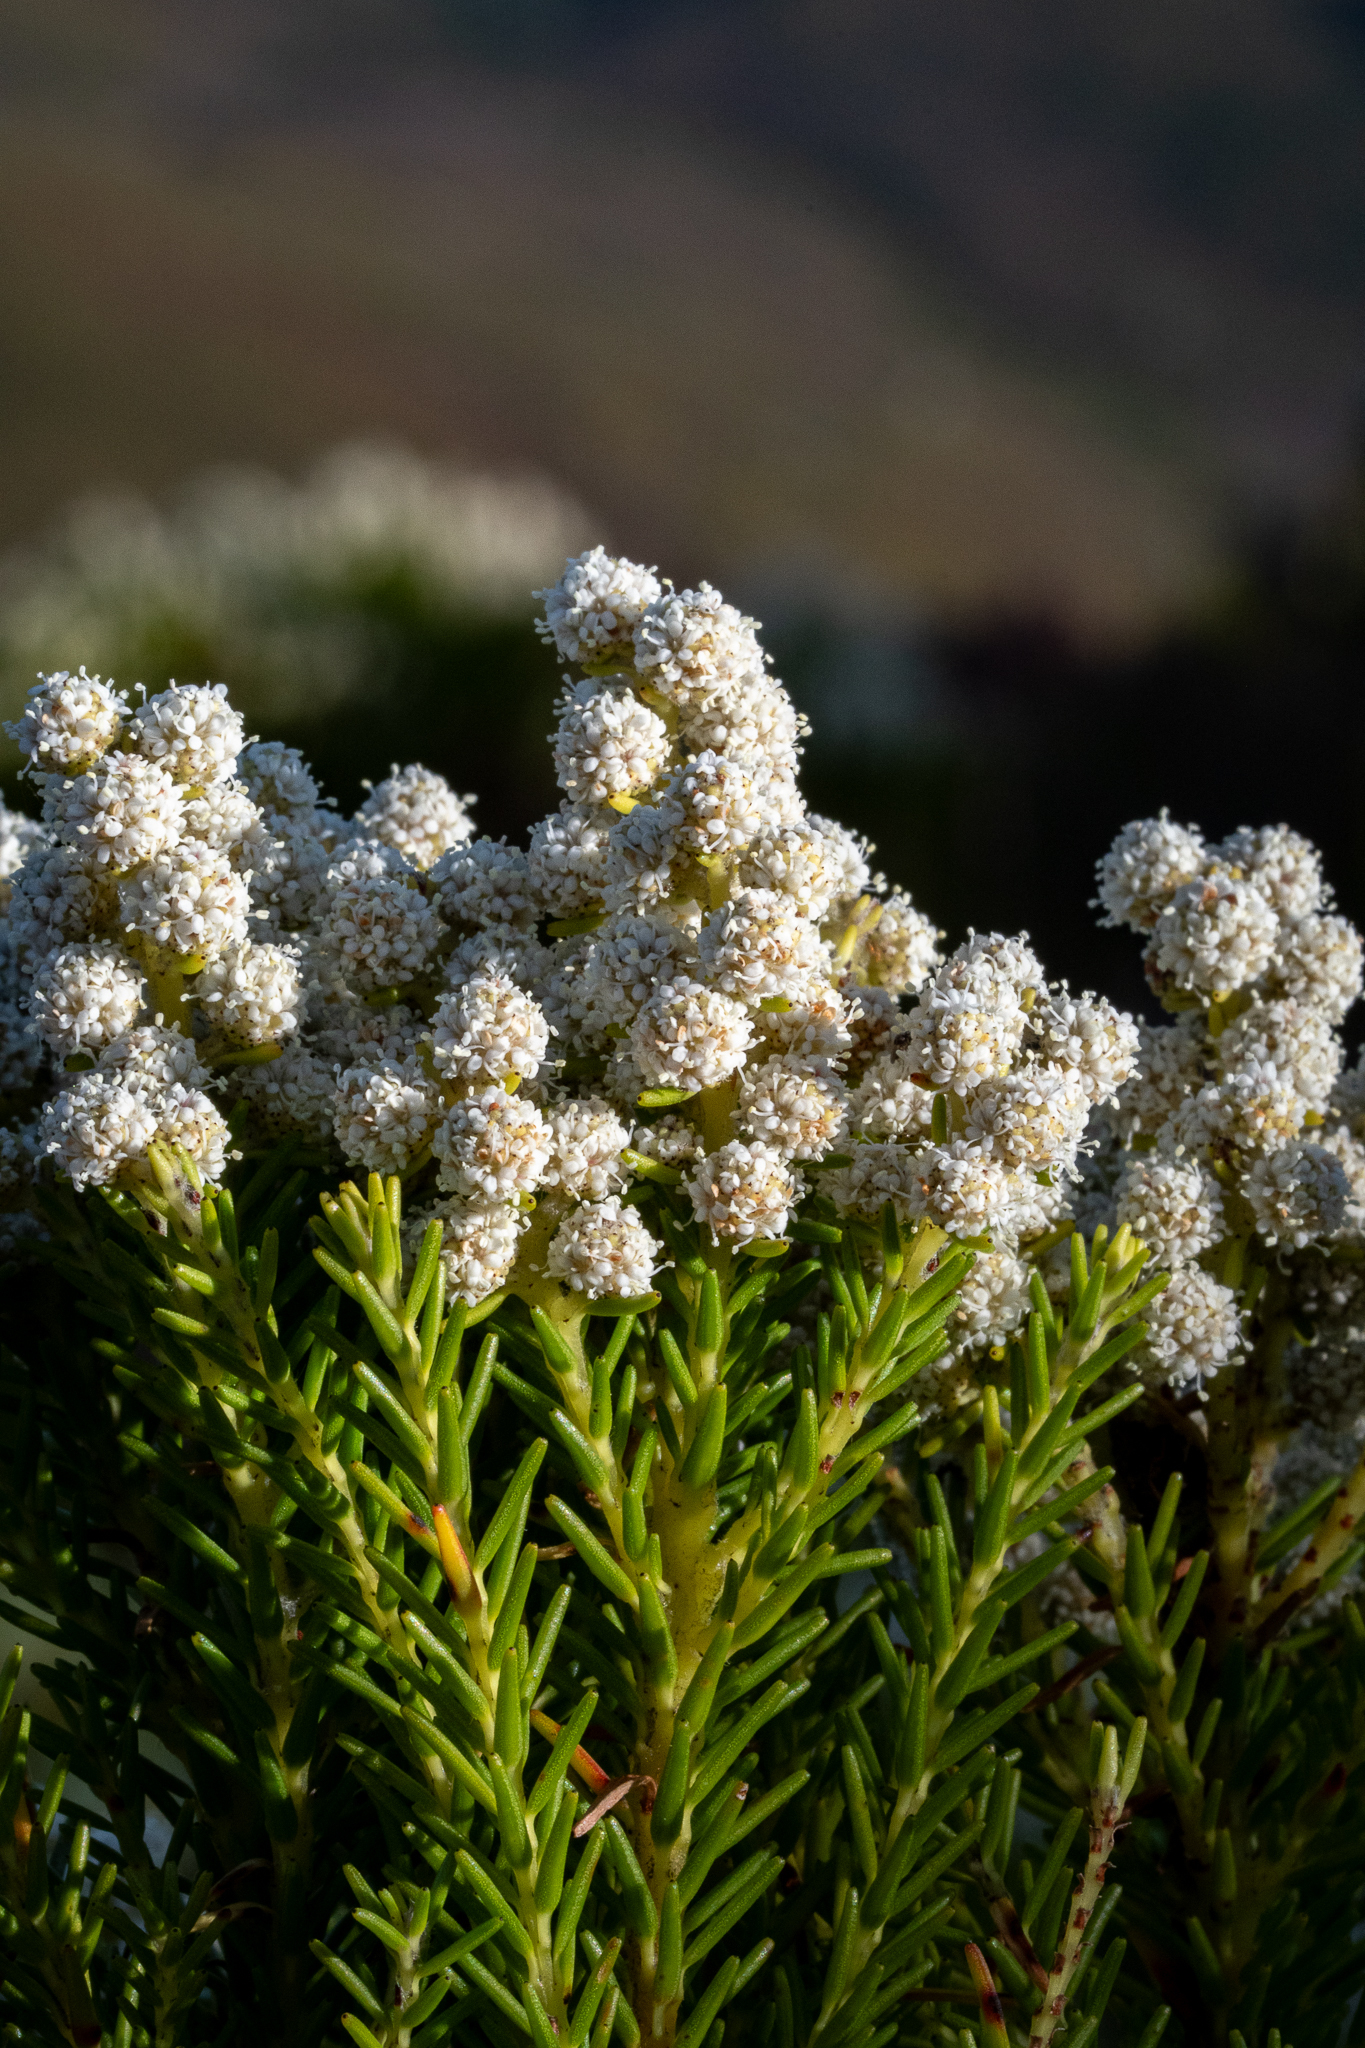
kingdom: Plantae
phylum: Tracheophyta
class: Magnoliopsida
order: Bruniales
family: Bruniaceae
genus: Berzelia
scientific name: Berzelia dregeana
